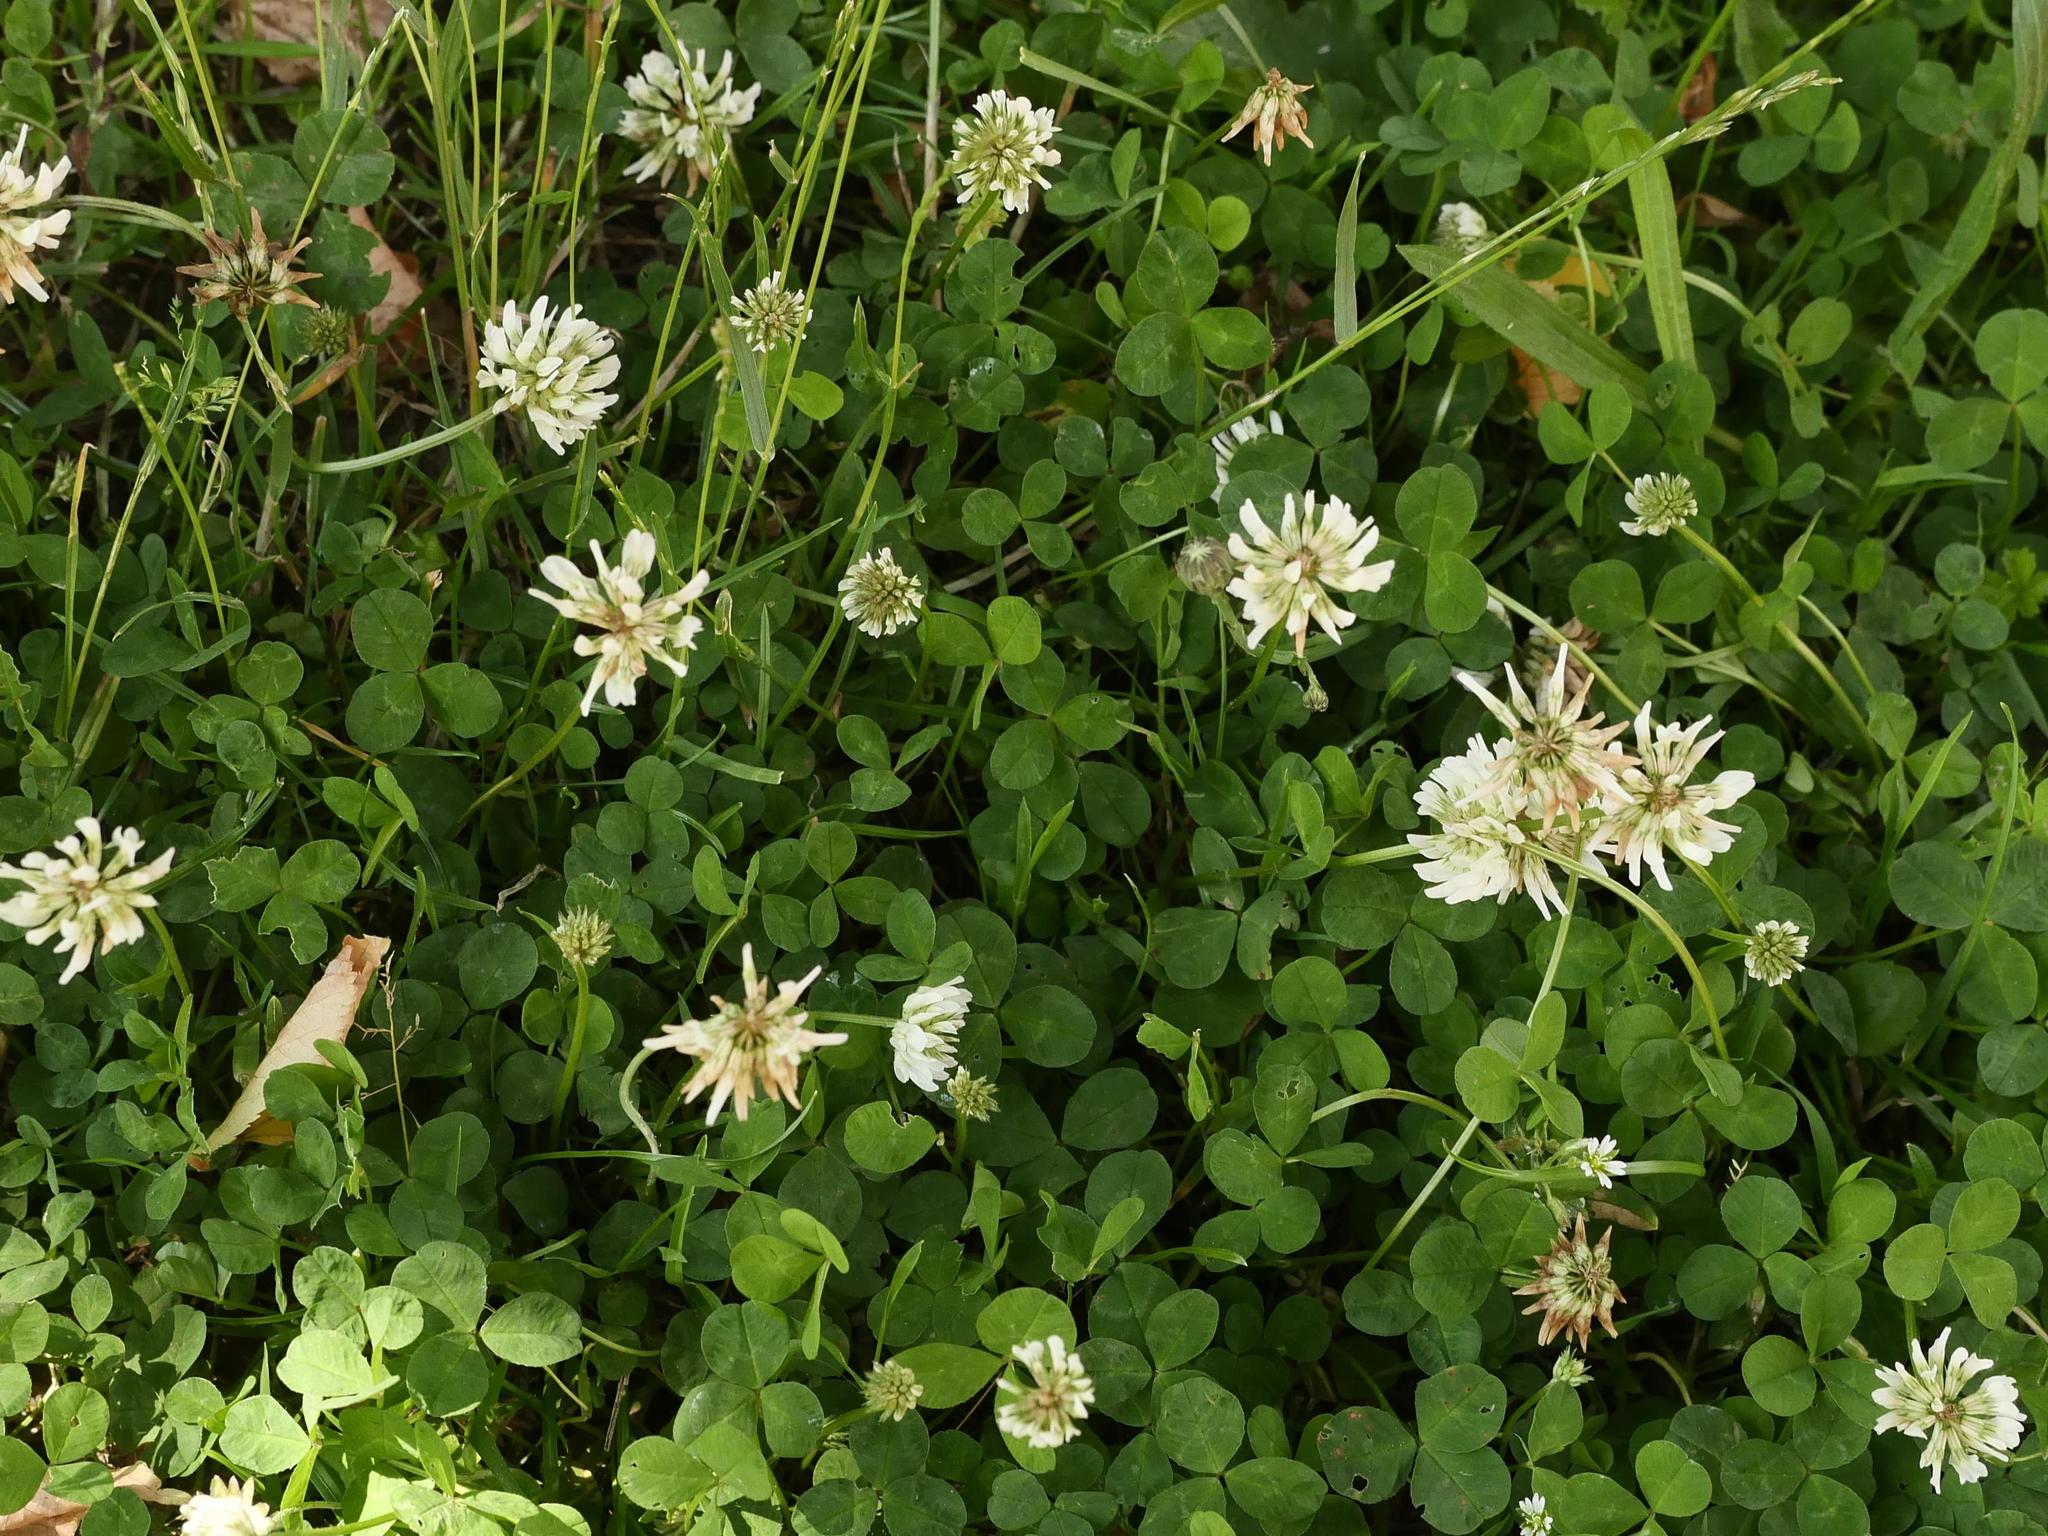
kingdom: Plantae
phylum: Tracheophyta
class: Magnoliopsida
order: Fabales
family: Fabaceae
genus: Trifolium
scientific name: Trifolium repens
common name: White clover
